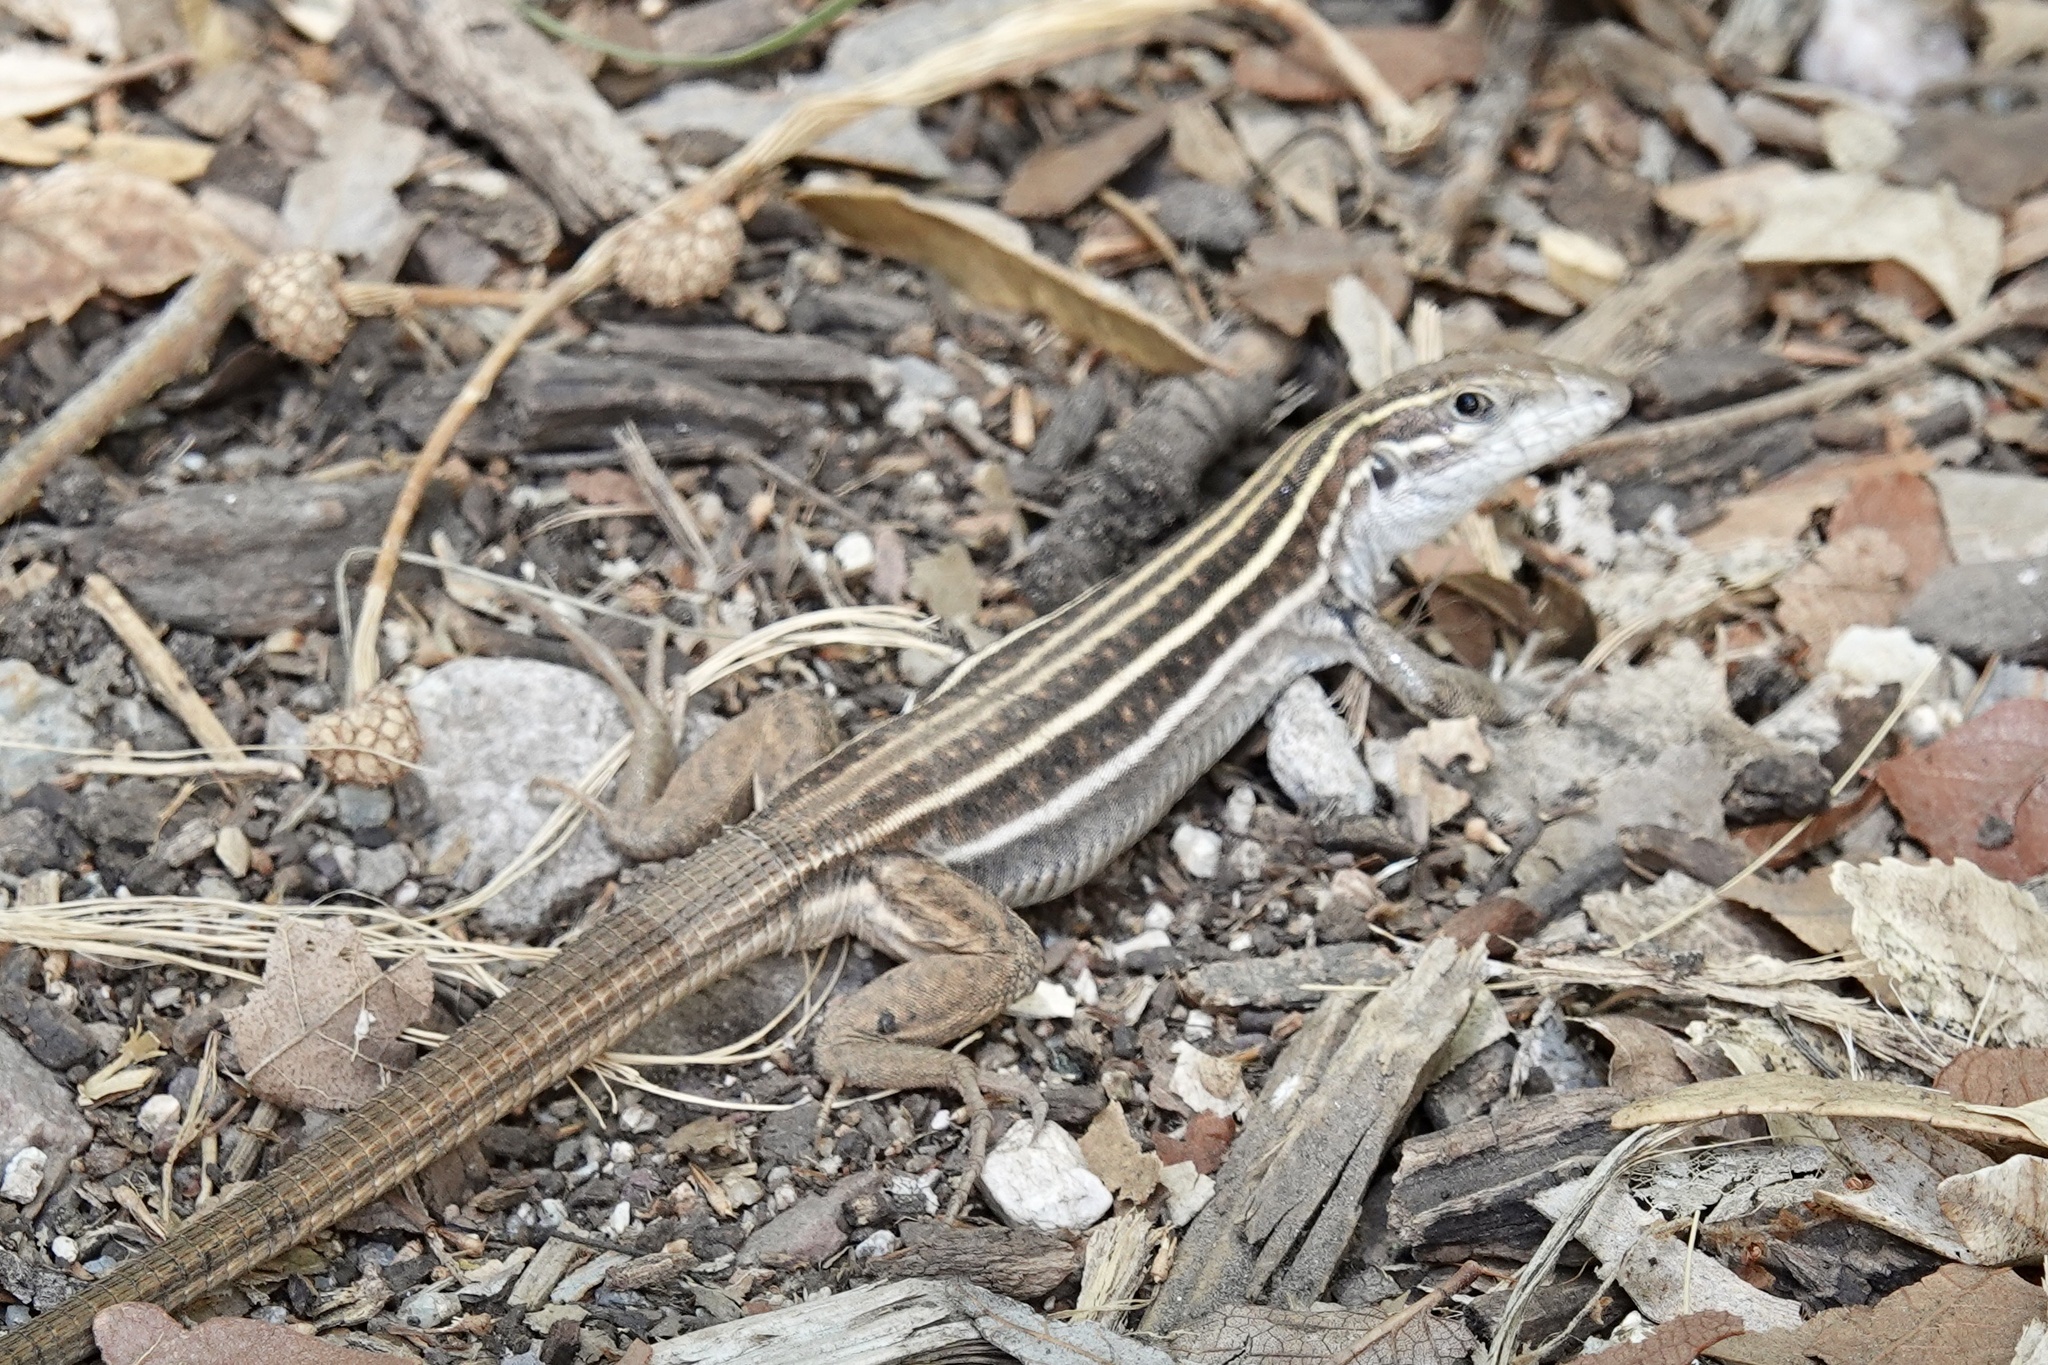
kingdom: Animalia
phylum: Chordata
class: Squamata
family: Teiidae
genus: Aspidoscelis
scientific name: Aspidoscelis sonorae
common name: Sonoran spotted whiptail
